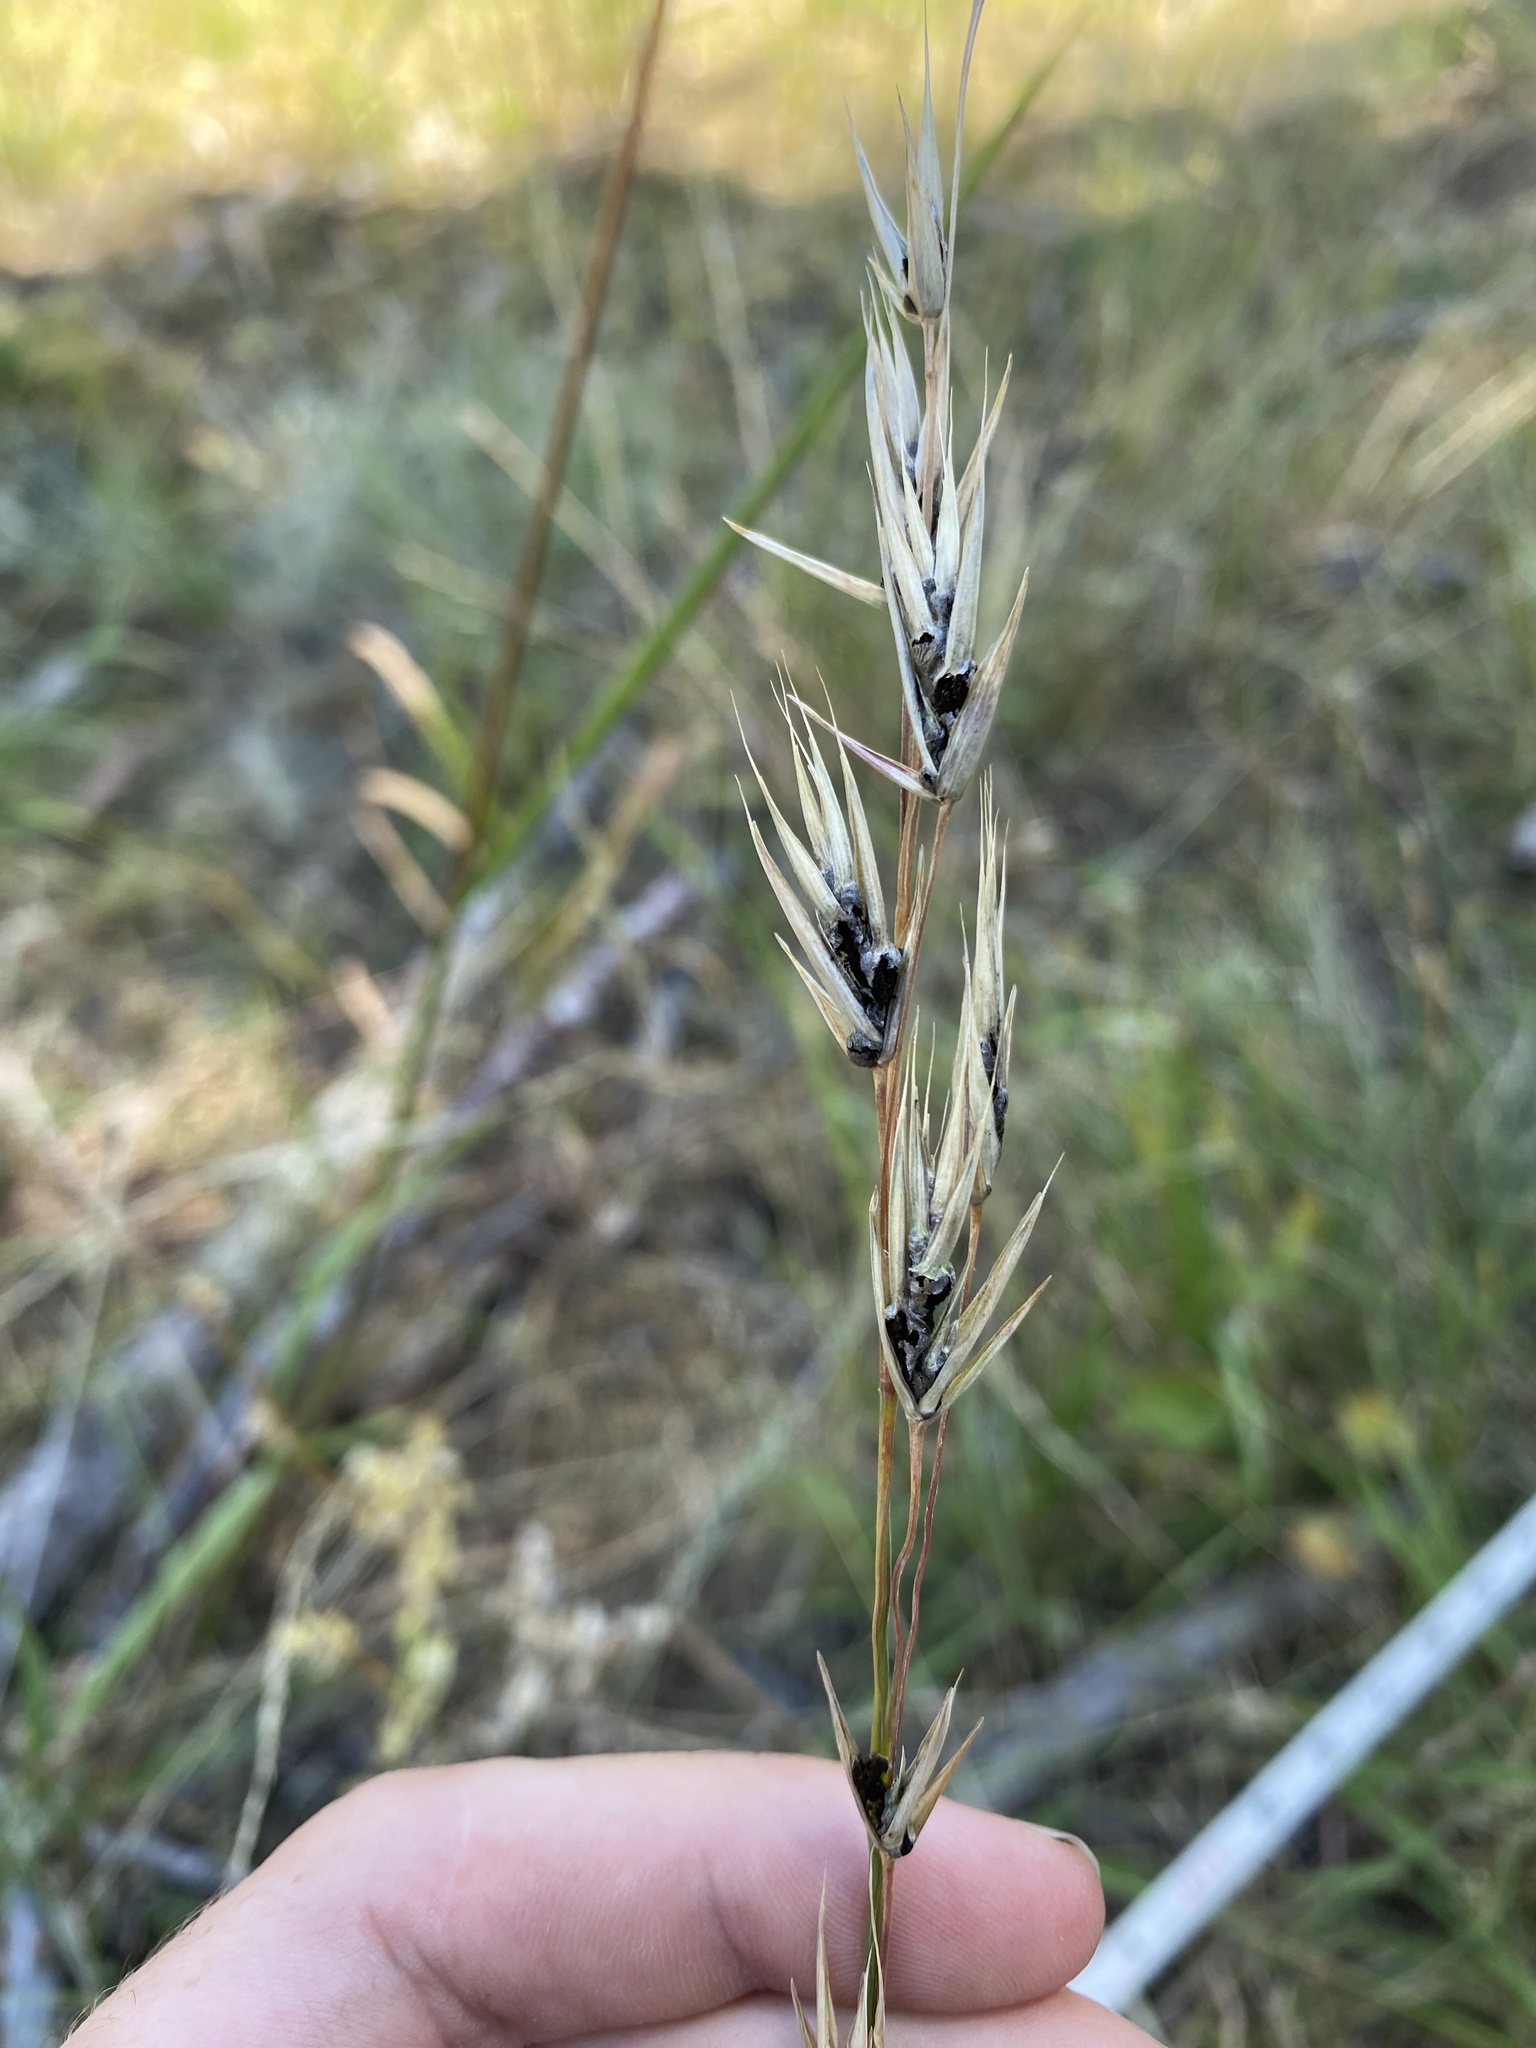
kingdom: Fungi
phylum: Ascomycota
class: Sordariomycetes
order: Hypocreales
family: Clavicipitaceae
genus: Claviceps
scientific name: Claviceps purpurea
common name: Rye ergot
